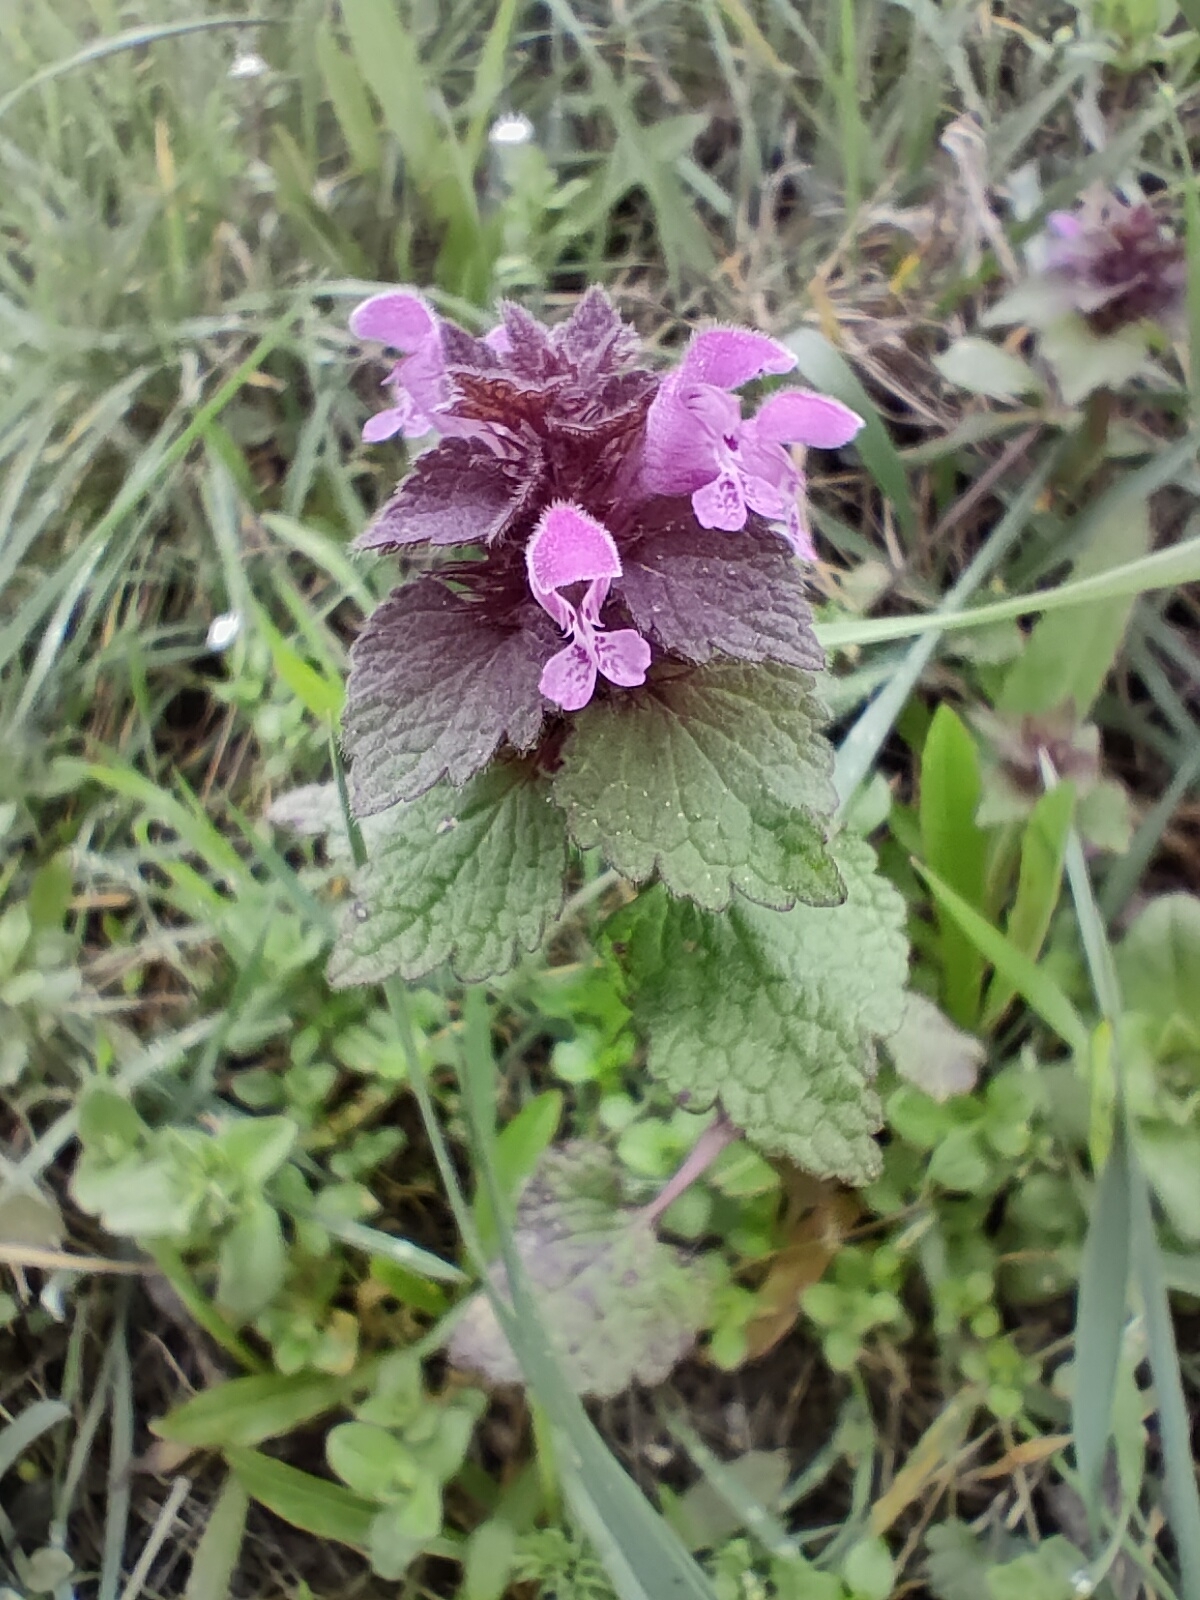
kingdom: Plantae
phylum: Tracheophyta
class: Magnoliopsida
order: Lamiales
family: Lamiaceae
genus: Lamium
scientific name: Lamium purpureum
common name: Red dead-nettle
